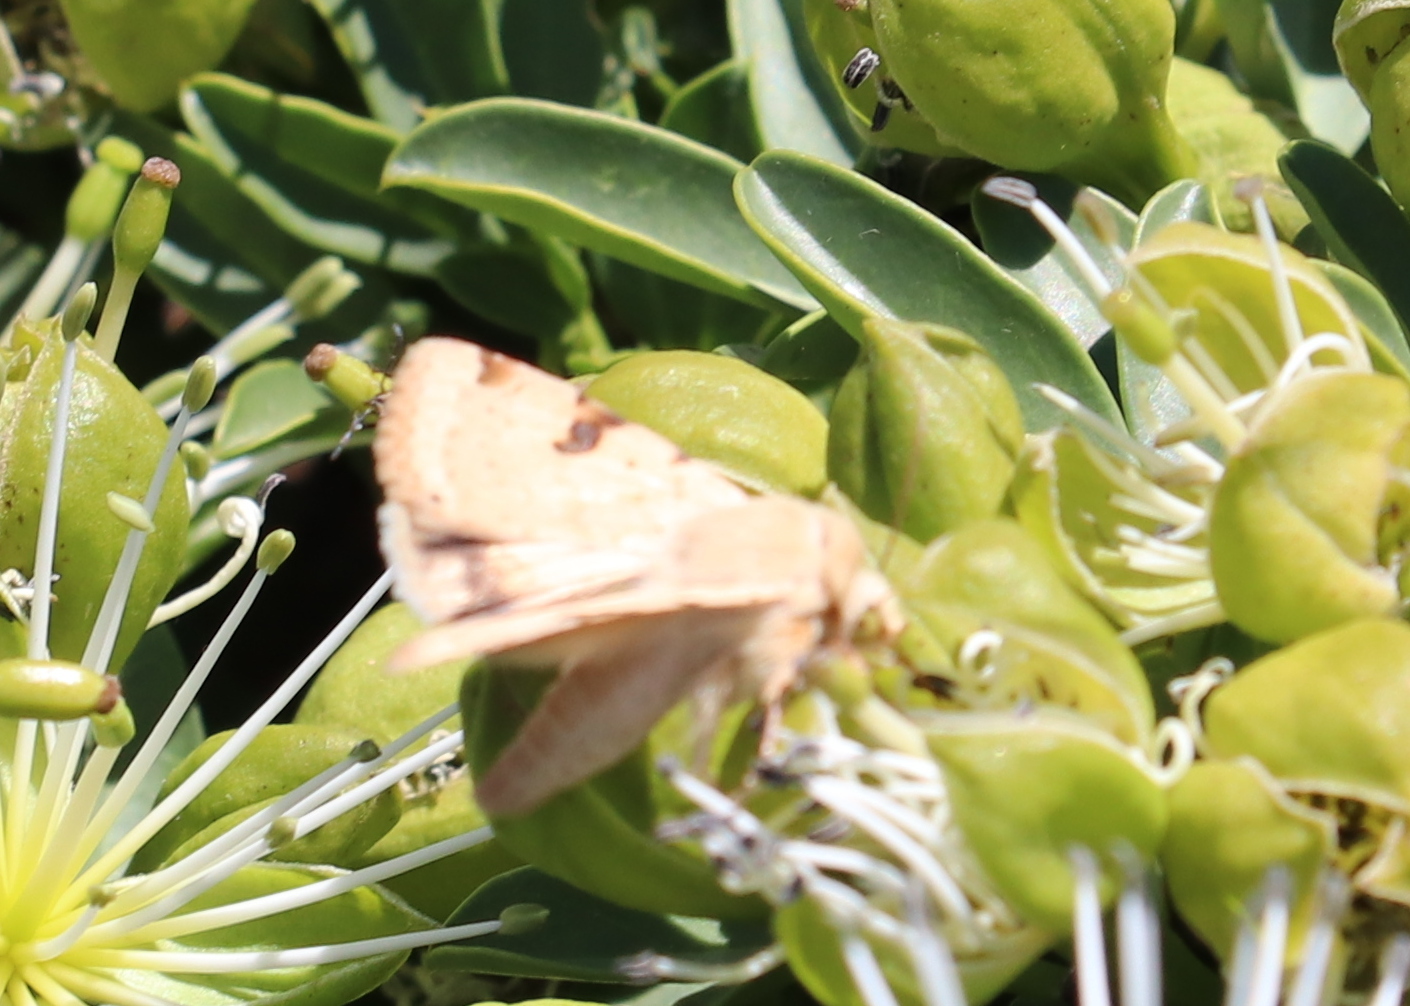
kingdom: Animalia
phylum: Arthropoda
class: Insecta
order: Lepidoptera
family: Noctuidae
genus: Heliothis
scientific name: Heliothis scutuligera
